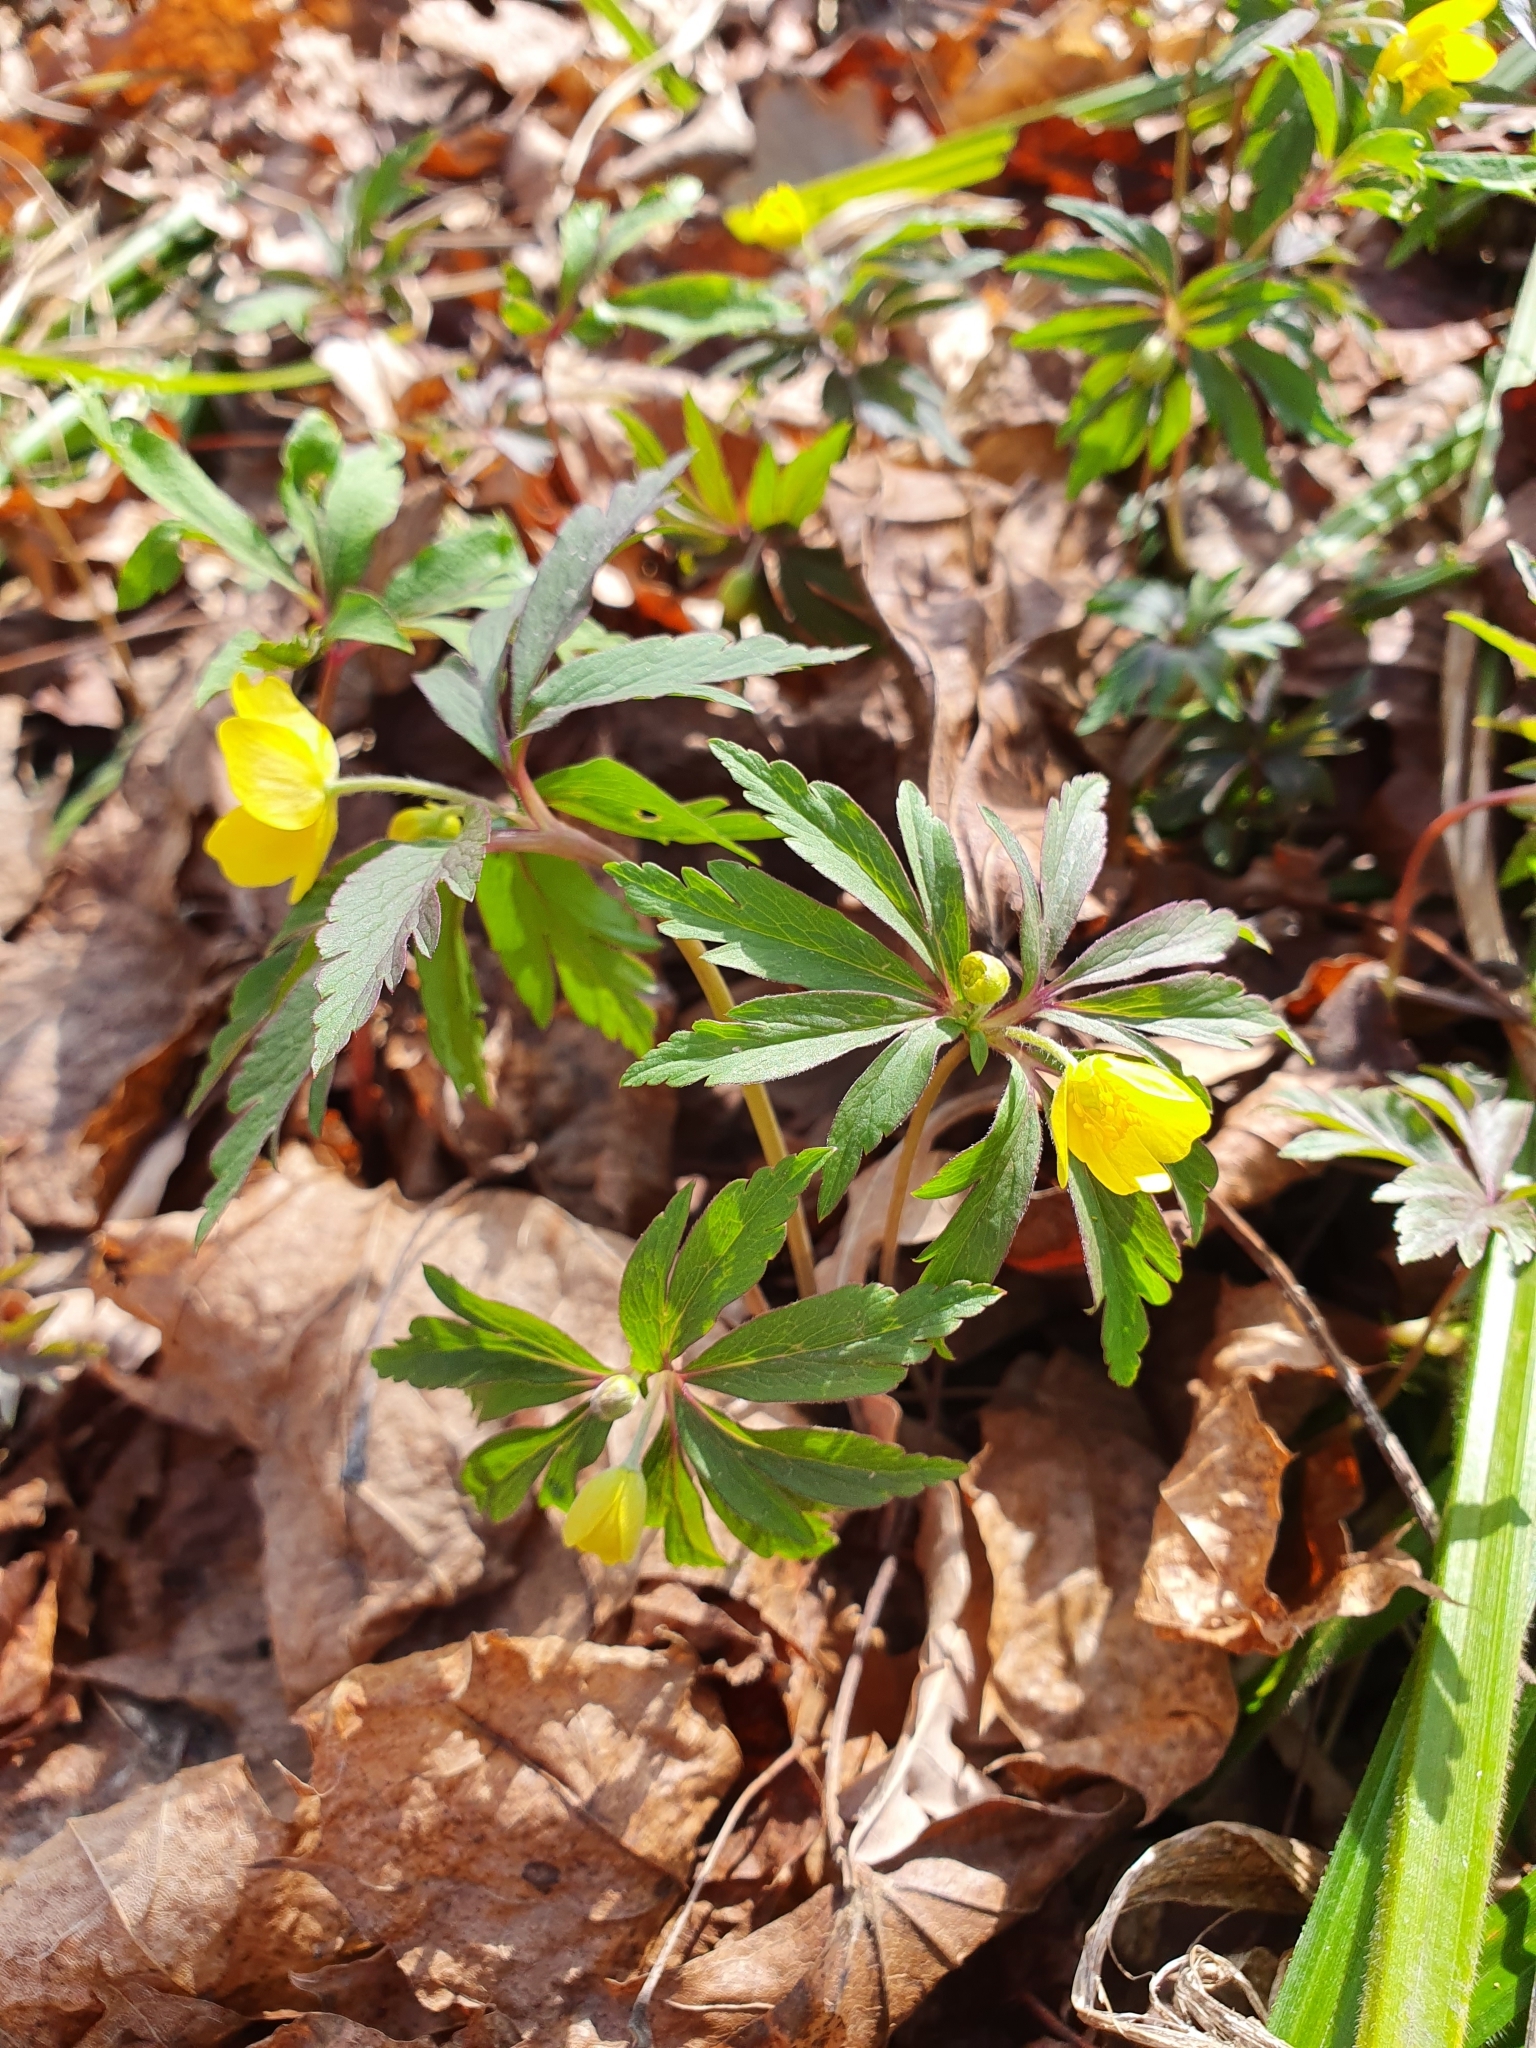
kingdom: Plantae
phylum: Tracheophyta
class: Magnoliopsida
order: Ranunculales
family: Ranunculaceae
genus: Anemone
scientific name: Anemone ranunculoides
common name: Yellow anemone
